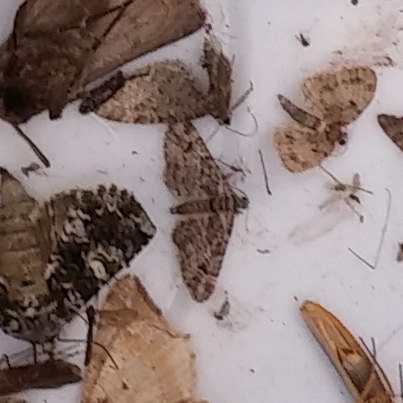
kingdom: Animalia
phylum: Arthropoda
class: Insecta
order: Lepidoptera
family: Geometridae
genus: Gymnoscelis
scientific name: Gymnoscelis rufifasciata
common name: Double-striped pug
